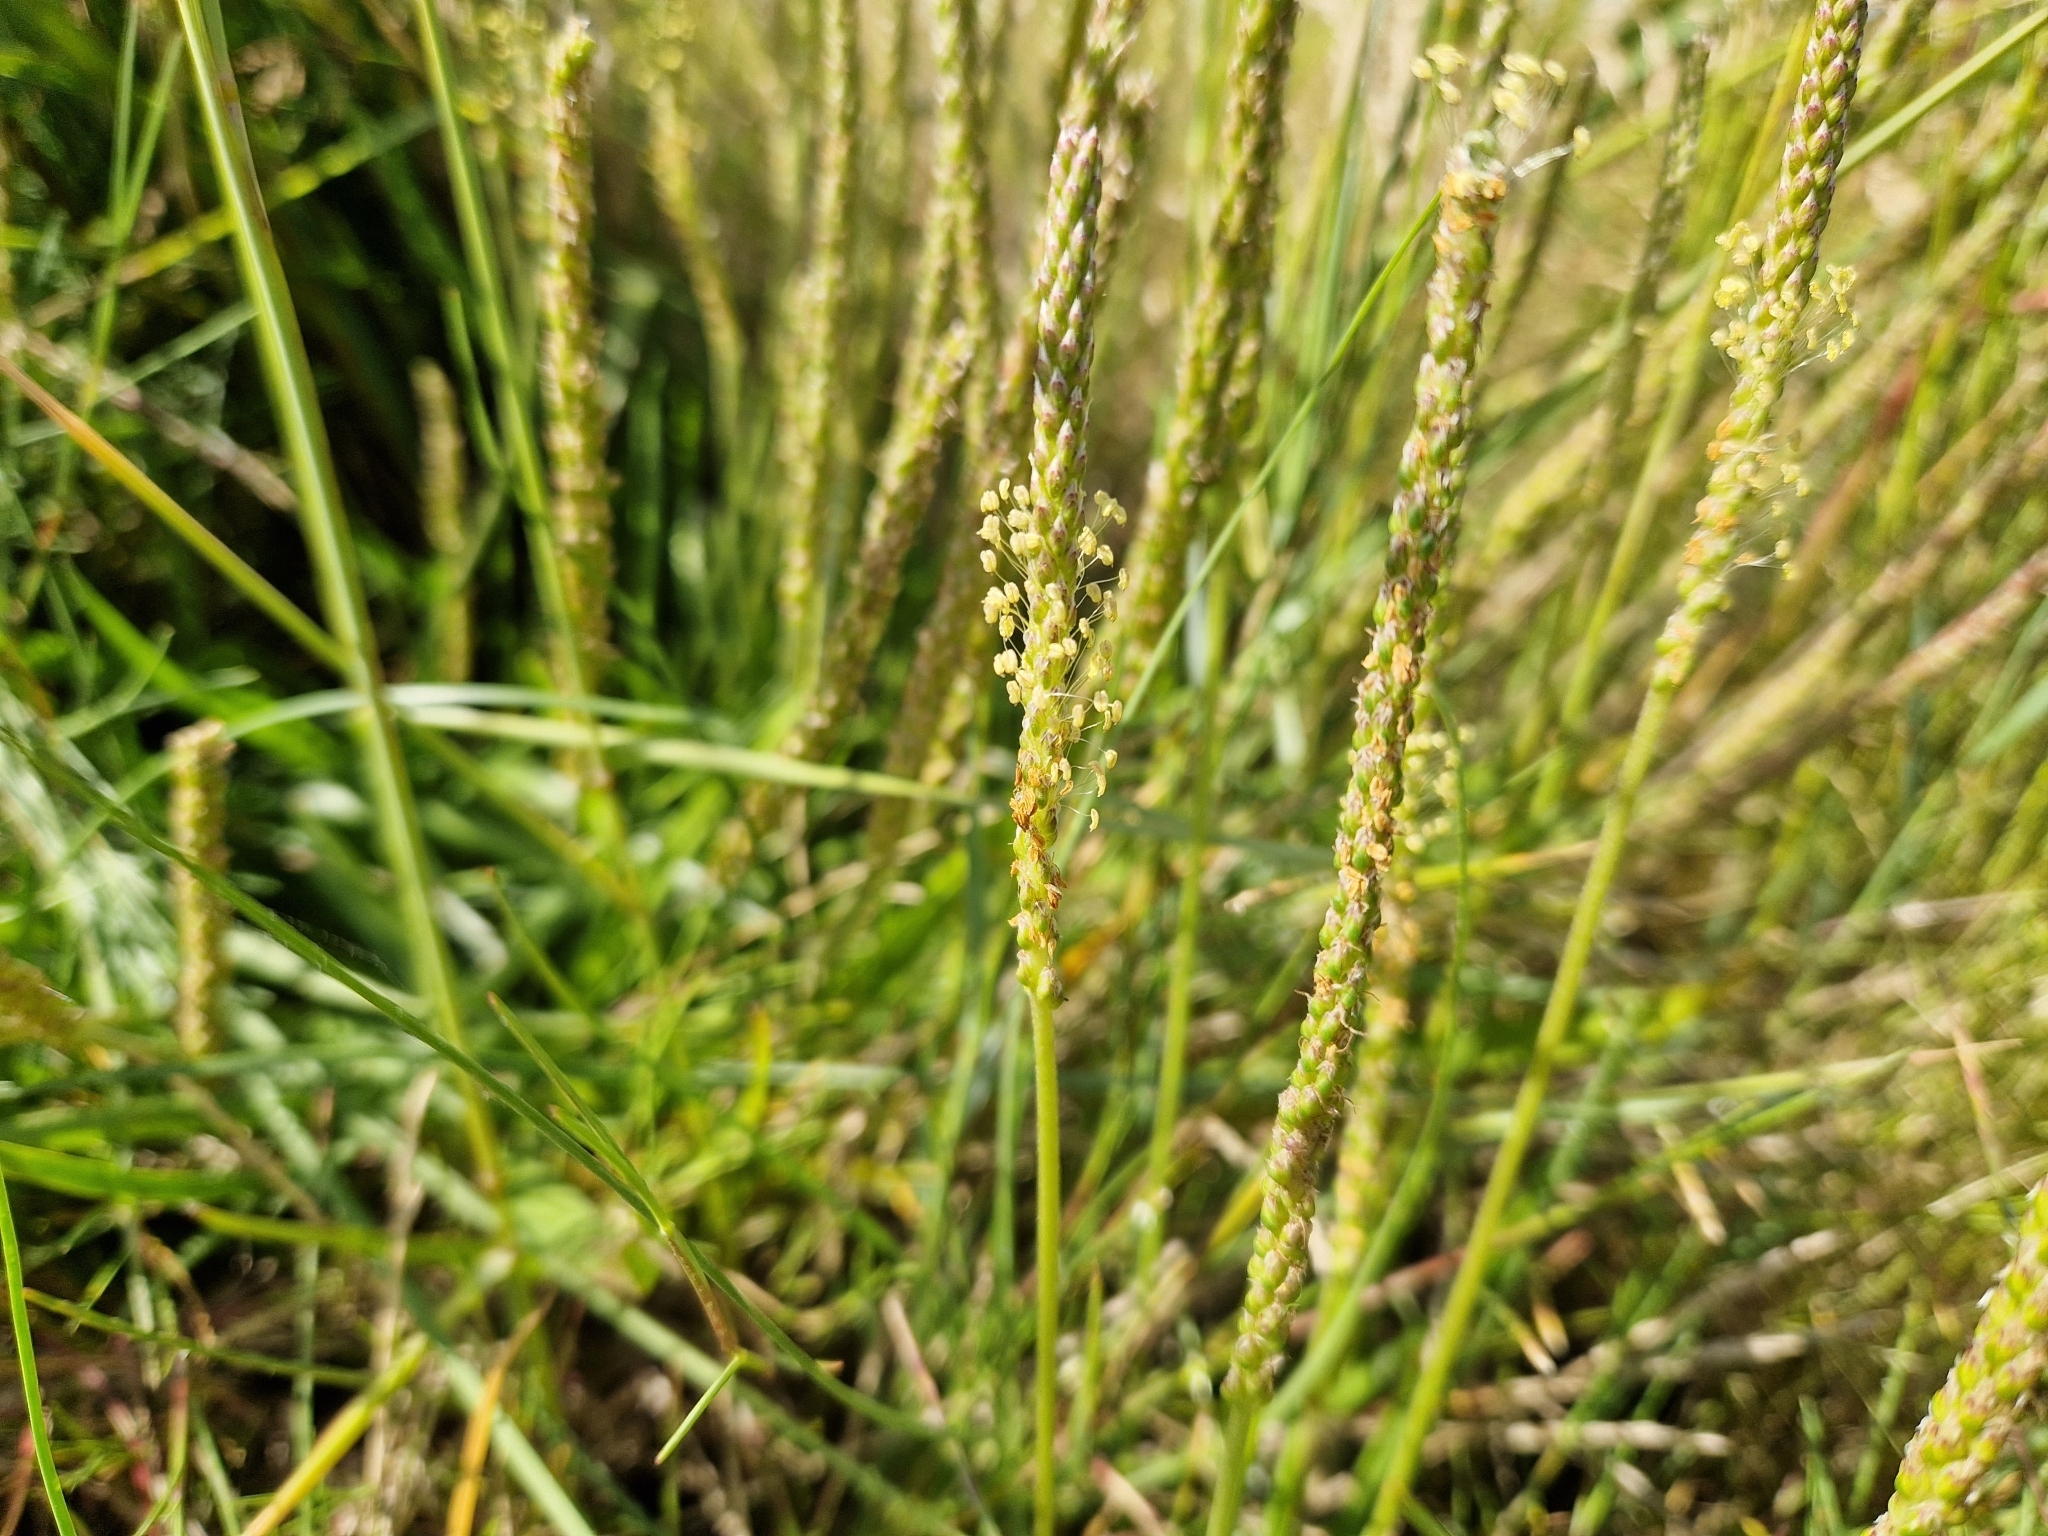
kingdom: Plantae
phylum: Tracheophyta
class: Magnoliopsida
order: Lamiales
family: Plantaginaceae
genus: Plantago
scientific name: Plantago maritima
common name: Sea plantain
